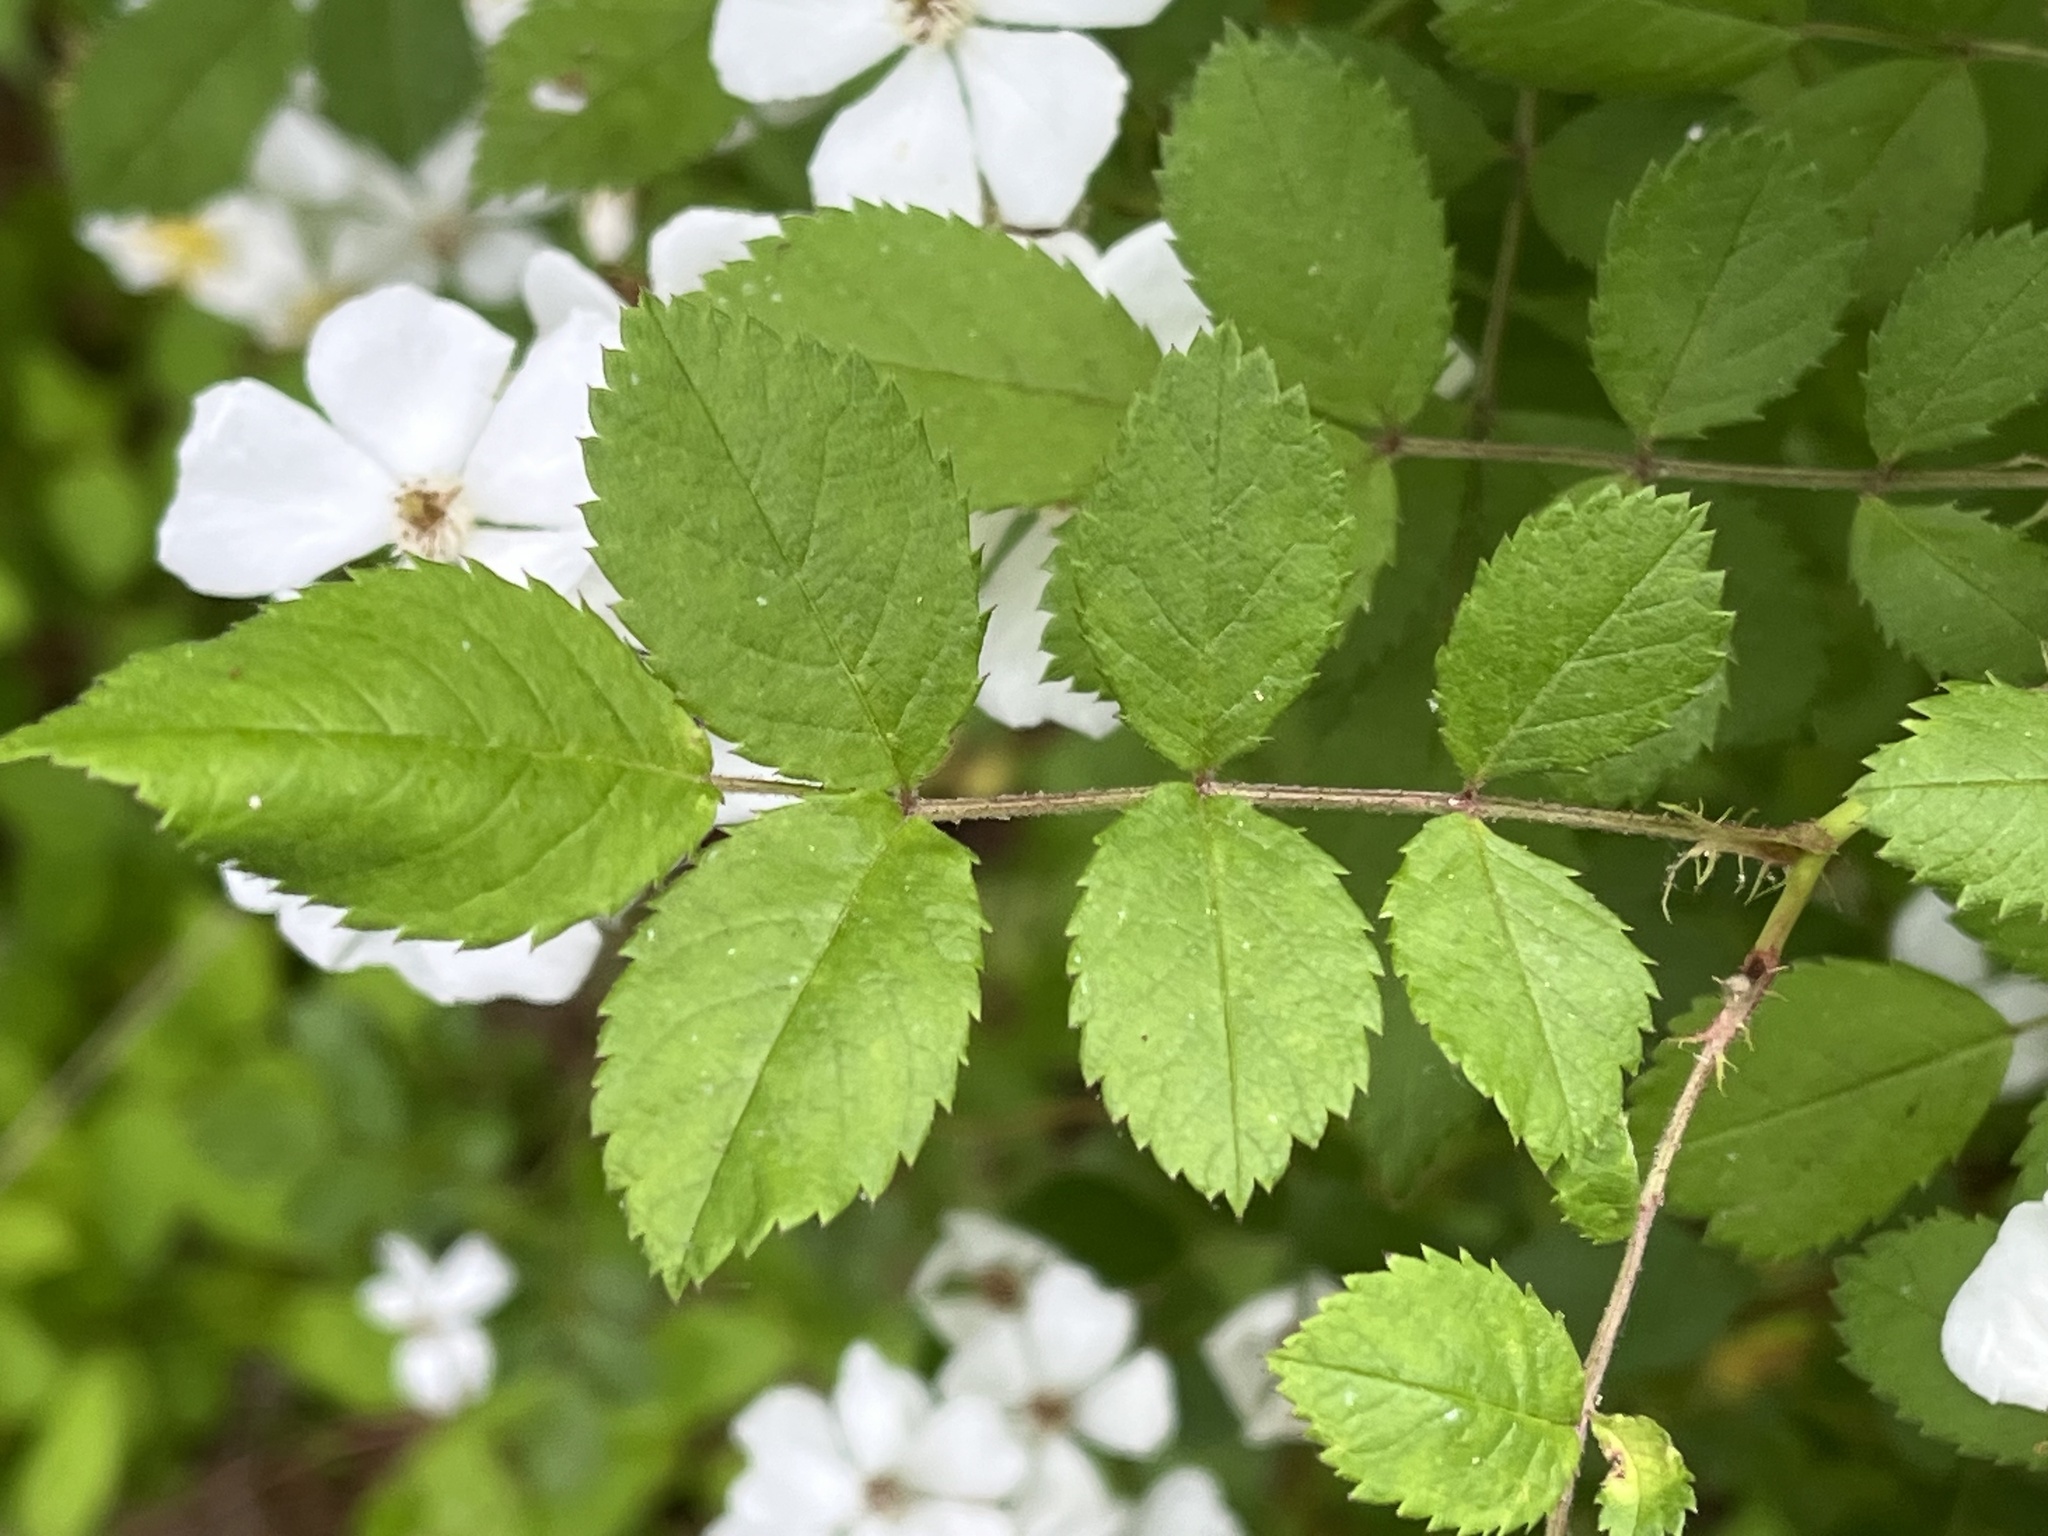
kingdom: Plantae
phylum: Tracheophyta
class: Magnoliopsida
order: Rosales
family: Rosaceae
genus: Rosa
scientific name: Rosa multiflora
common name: Multiflora rose
